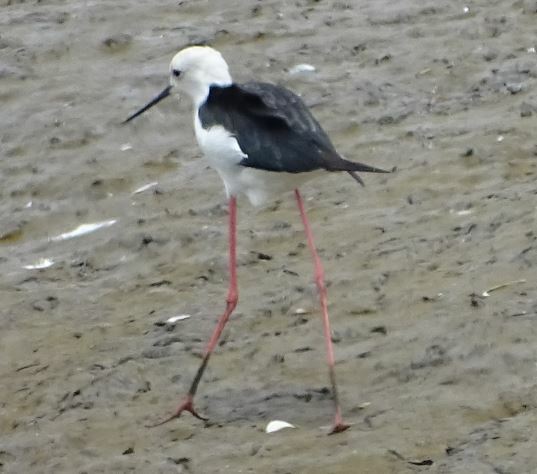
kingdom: Animalia
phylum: Chordata
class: Aves
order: Charadriiformes
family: Recurvirostridae
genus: Himantopus
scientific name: Himantopus himantopus
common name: Black-winged stilt
